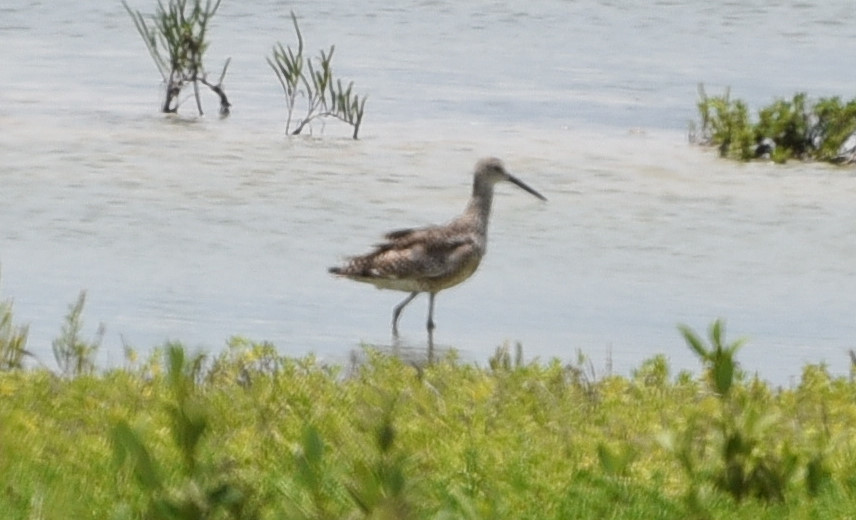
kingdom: Animalia
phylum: Chordata
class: Aves
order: Charadriiformes
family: Scolopacidae
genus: Tringa
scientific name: Tringa semipalmata
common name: Willet
